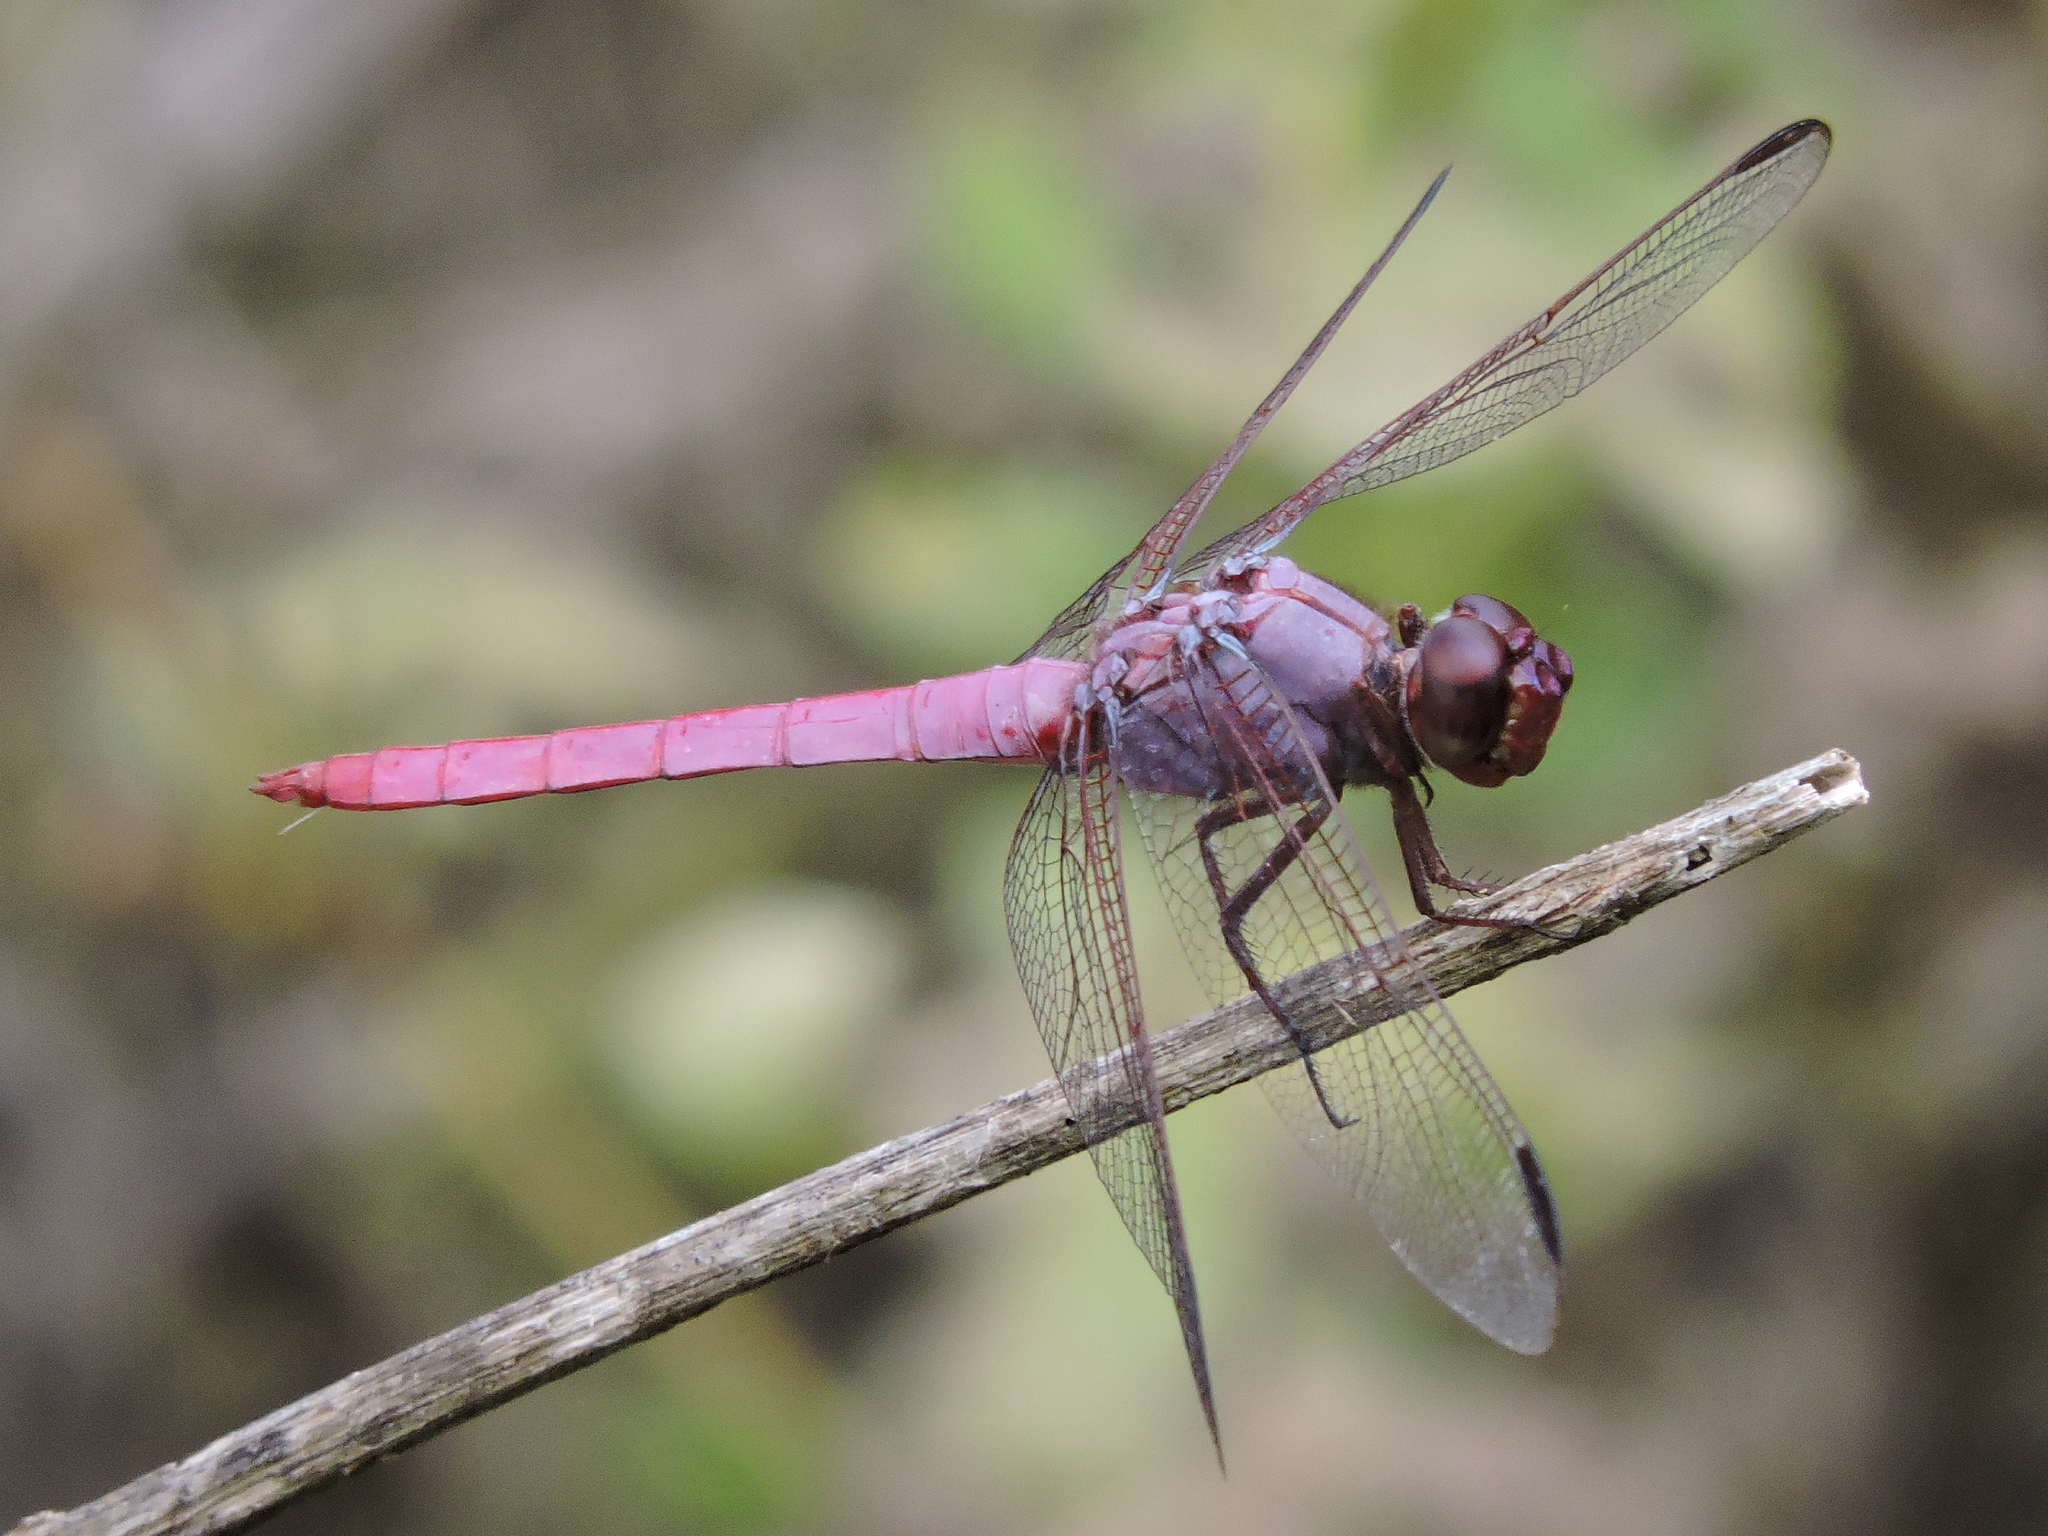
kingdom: Animalia
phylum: Arthropoda
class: Insecta
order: Odonata
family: Libellulidae
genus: Orthemis
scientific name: Orthemis ferruginea
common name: Roseate skimmer
